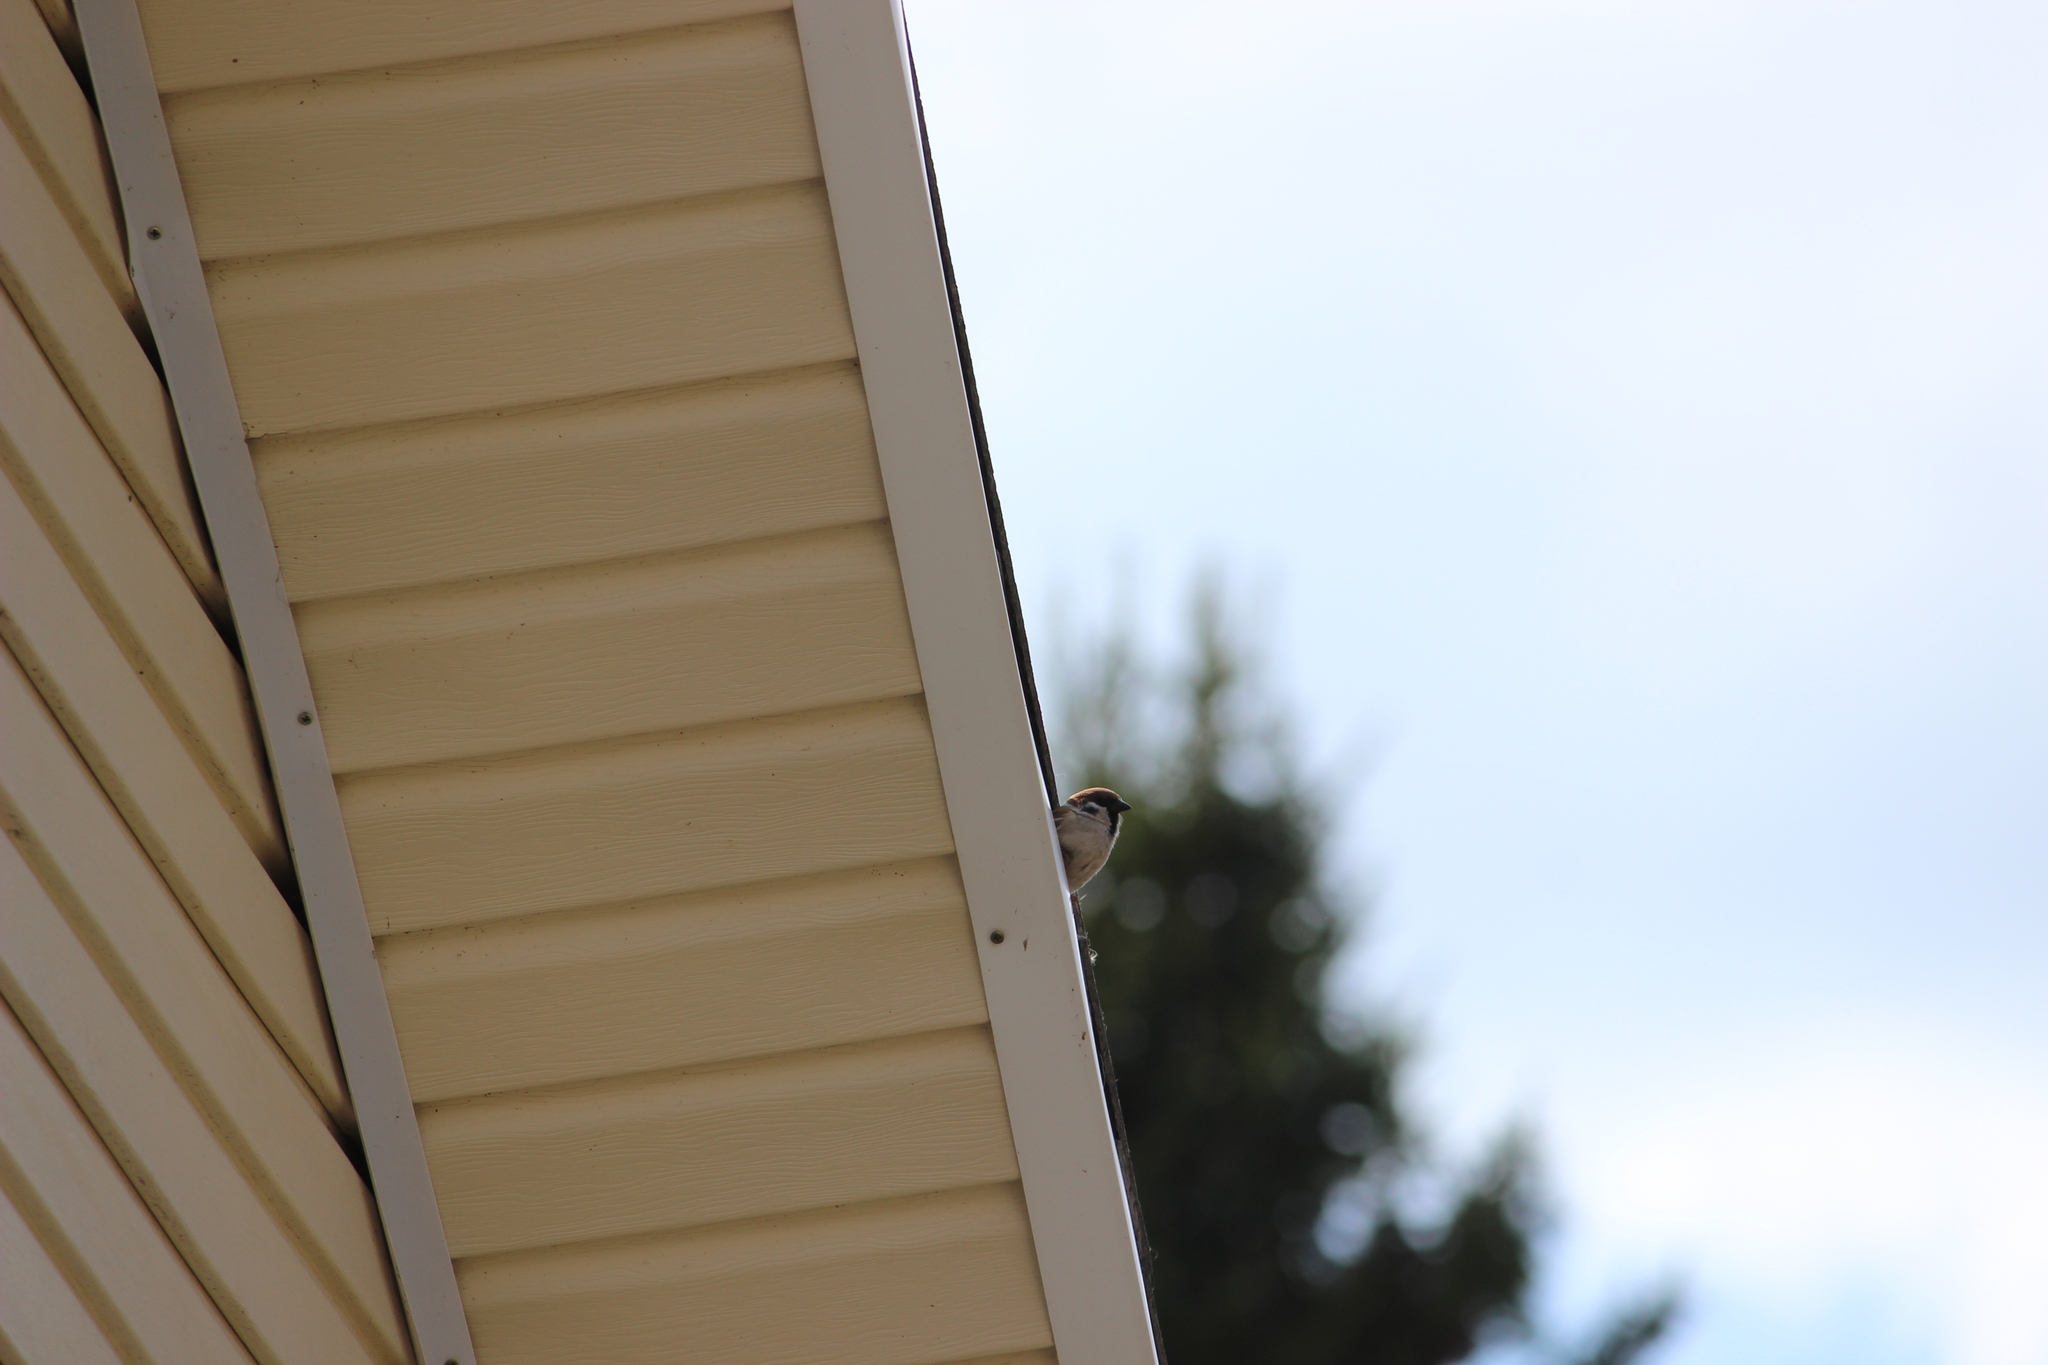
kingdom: Animalia
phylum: Chordata
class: Aves
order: Passeriformes
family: Passeridae
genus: Passer
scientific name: Passer montanus
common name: Eurasian tree sparrow
